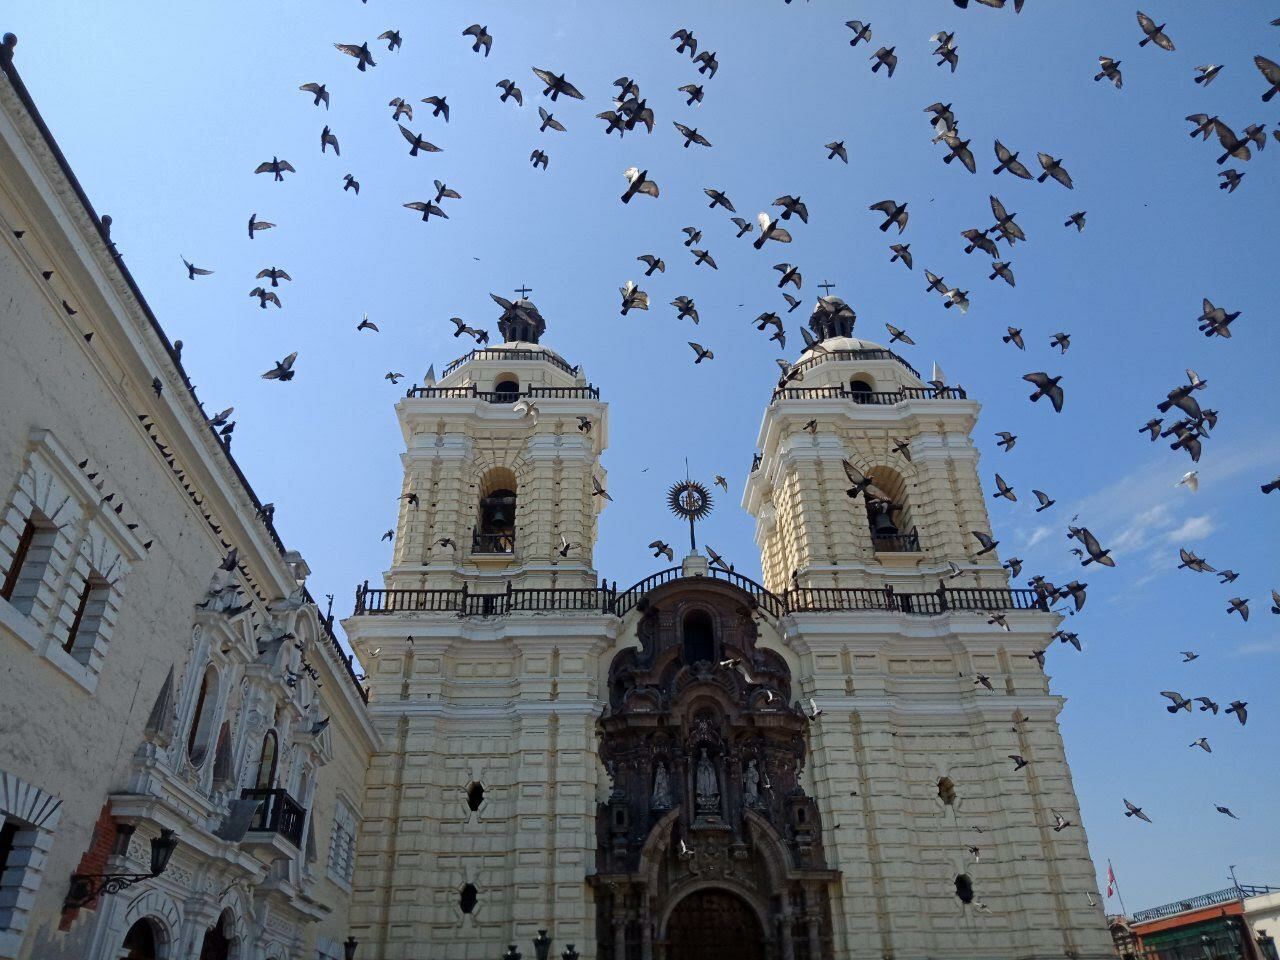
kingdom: Animalia
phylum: Chordata
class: Aves
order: Columbiformes
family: Columbidae
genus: Columba
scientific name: Columba livia
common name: Rock pigeon
